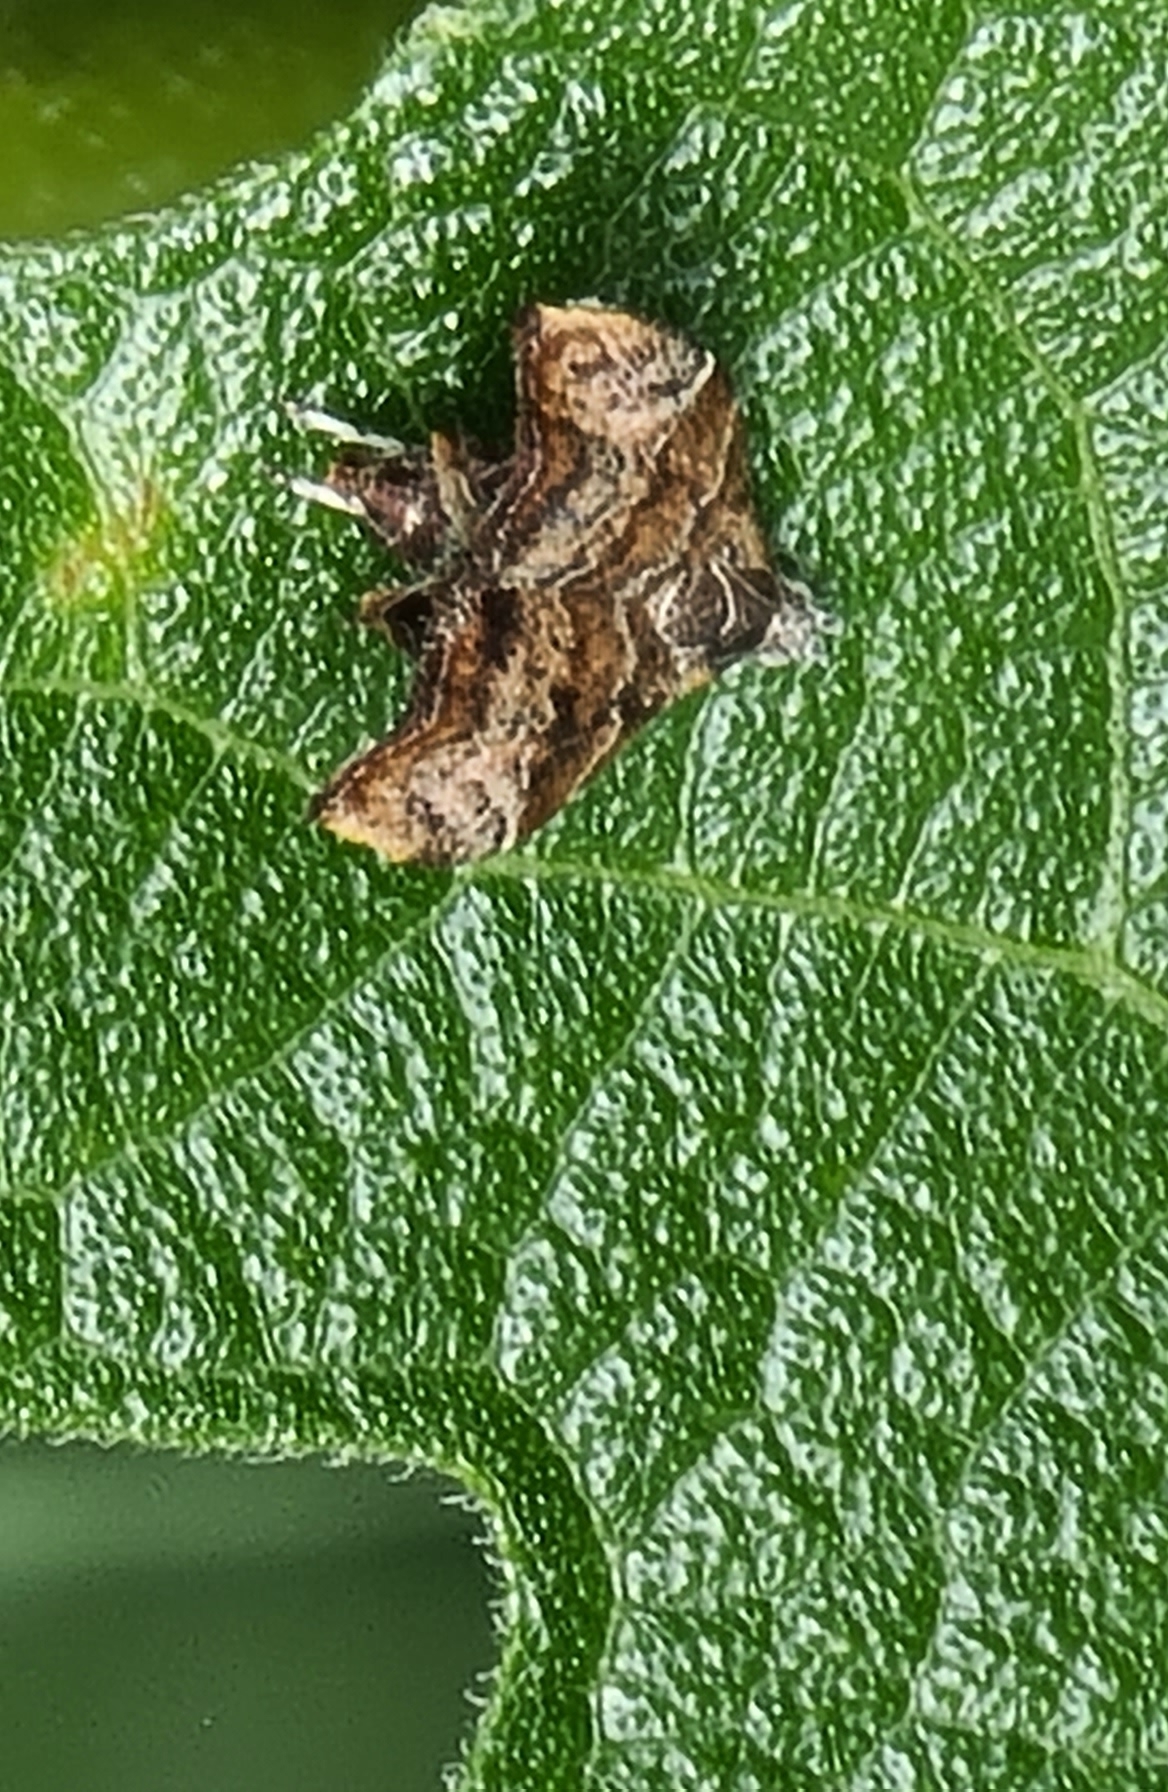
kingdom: Animalia
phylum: Arthropoda
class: Insecta
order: Lepidoptera
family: Choreutidae
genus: Anthophila
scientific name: Anthophila nemorana
